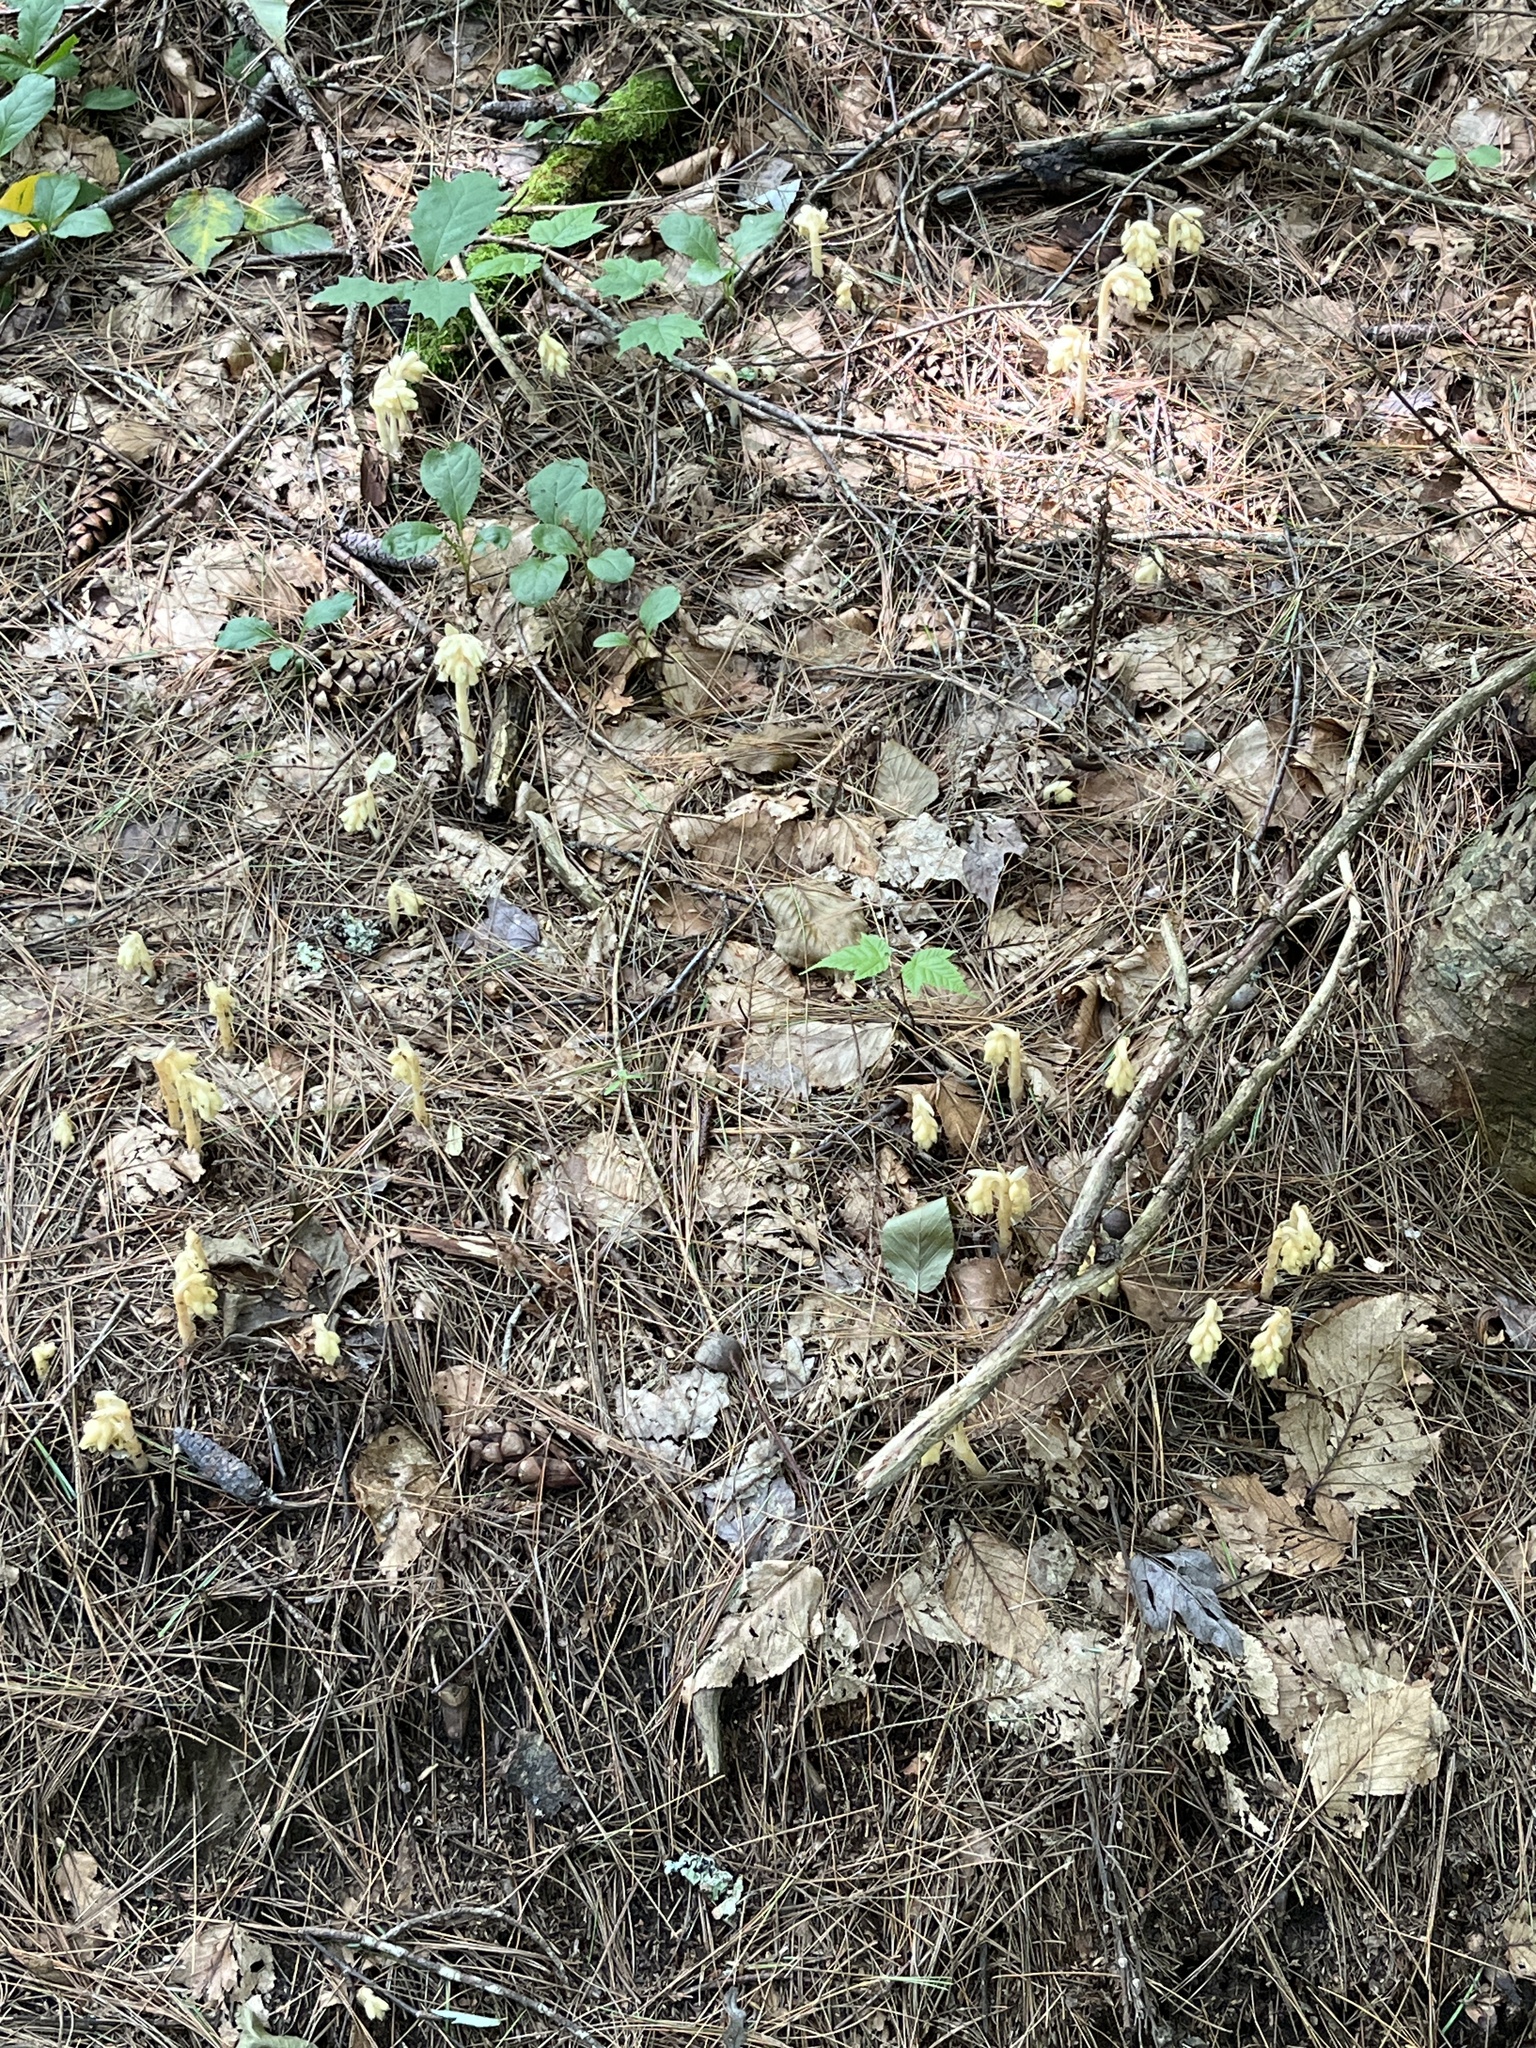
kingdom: Plantae
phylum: Tracheophyta
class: Magnoliopsida
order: Ericales
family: Ericaceae
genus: Hypopitys
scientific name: Hypopitys monotropa
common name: Yellow bird's-nest
